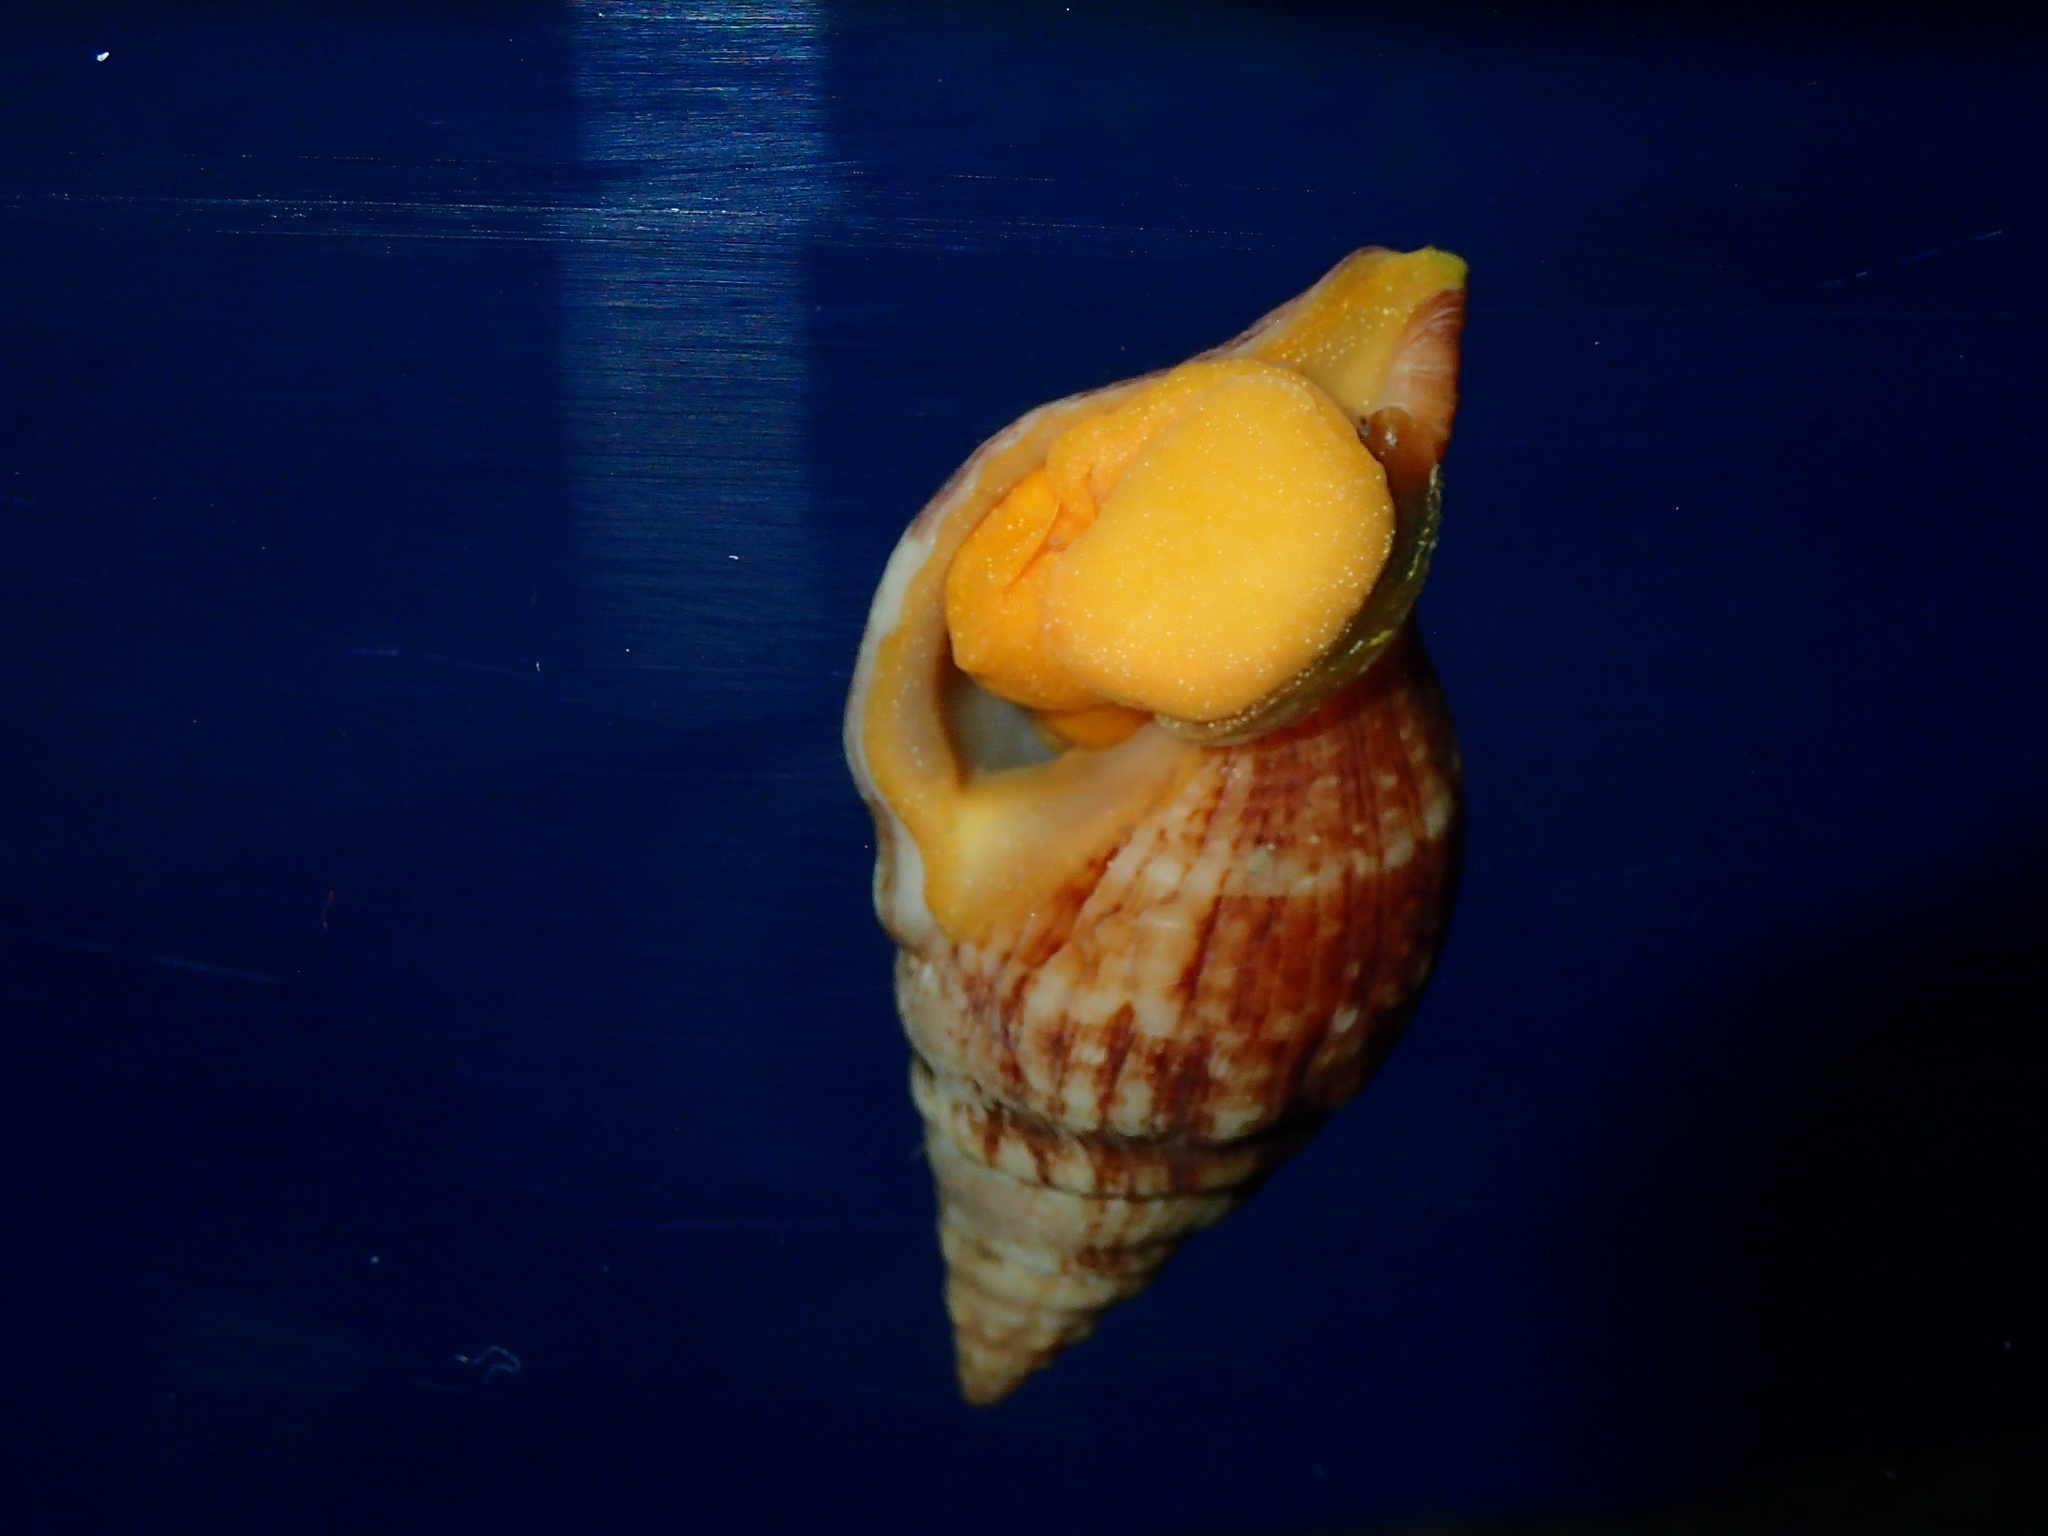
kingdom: Animalia
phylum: Mollusca
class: Gastropoda
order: Neogastropoda
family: Tudiclidae
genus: Euthria
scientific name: Euthria cornea
